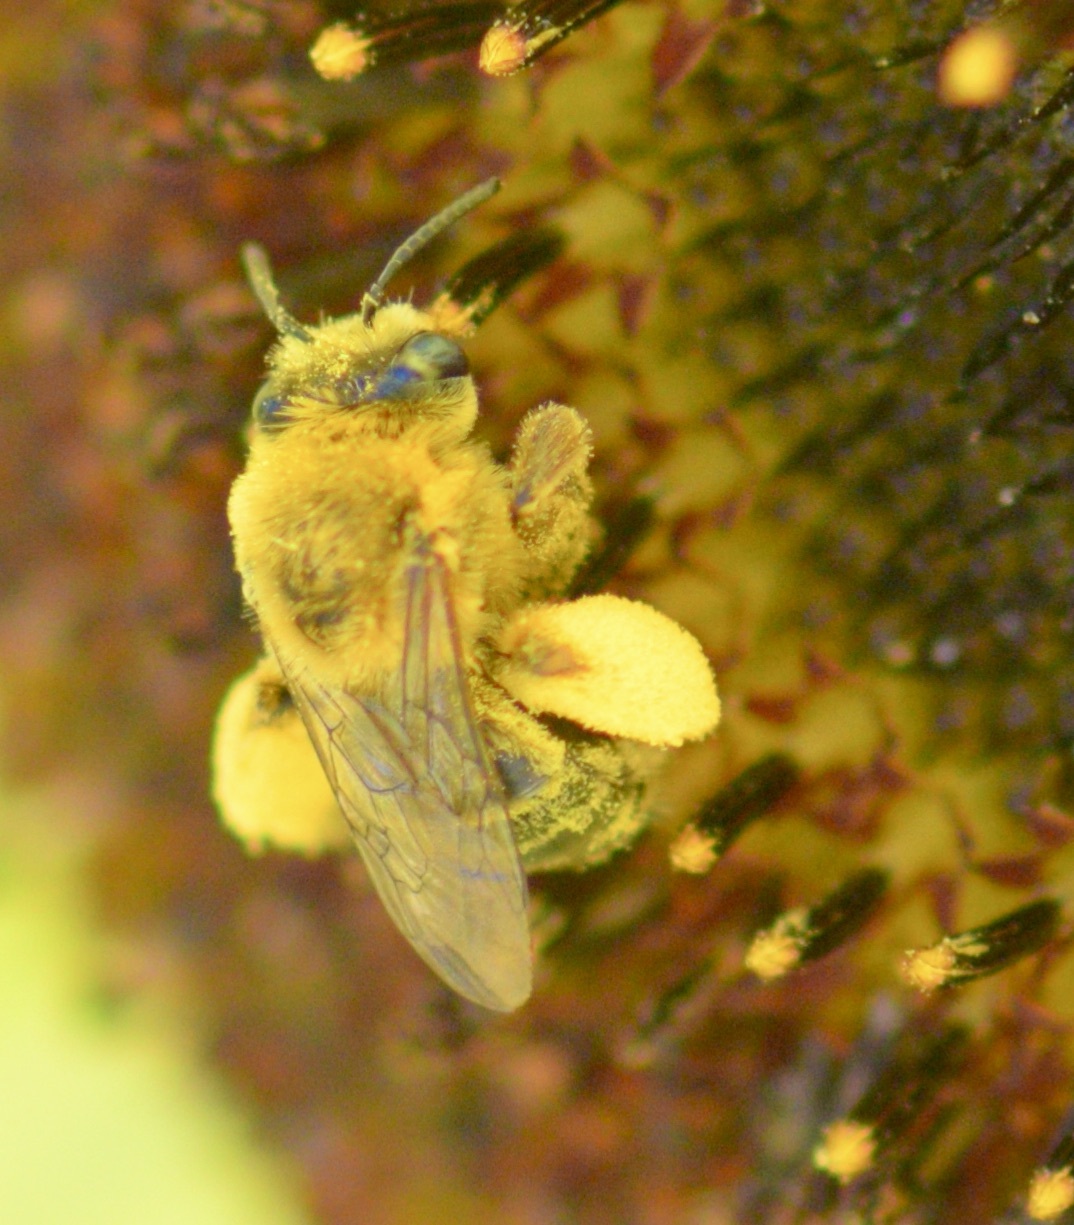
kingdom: Animalia
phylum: Arthropoda
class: Insecta
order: Hymenoptera
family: Apidae
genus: Melissodes
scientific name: Melissodes trinodis
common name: Dark-veined longhorn
